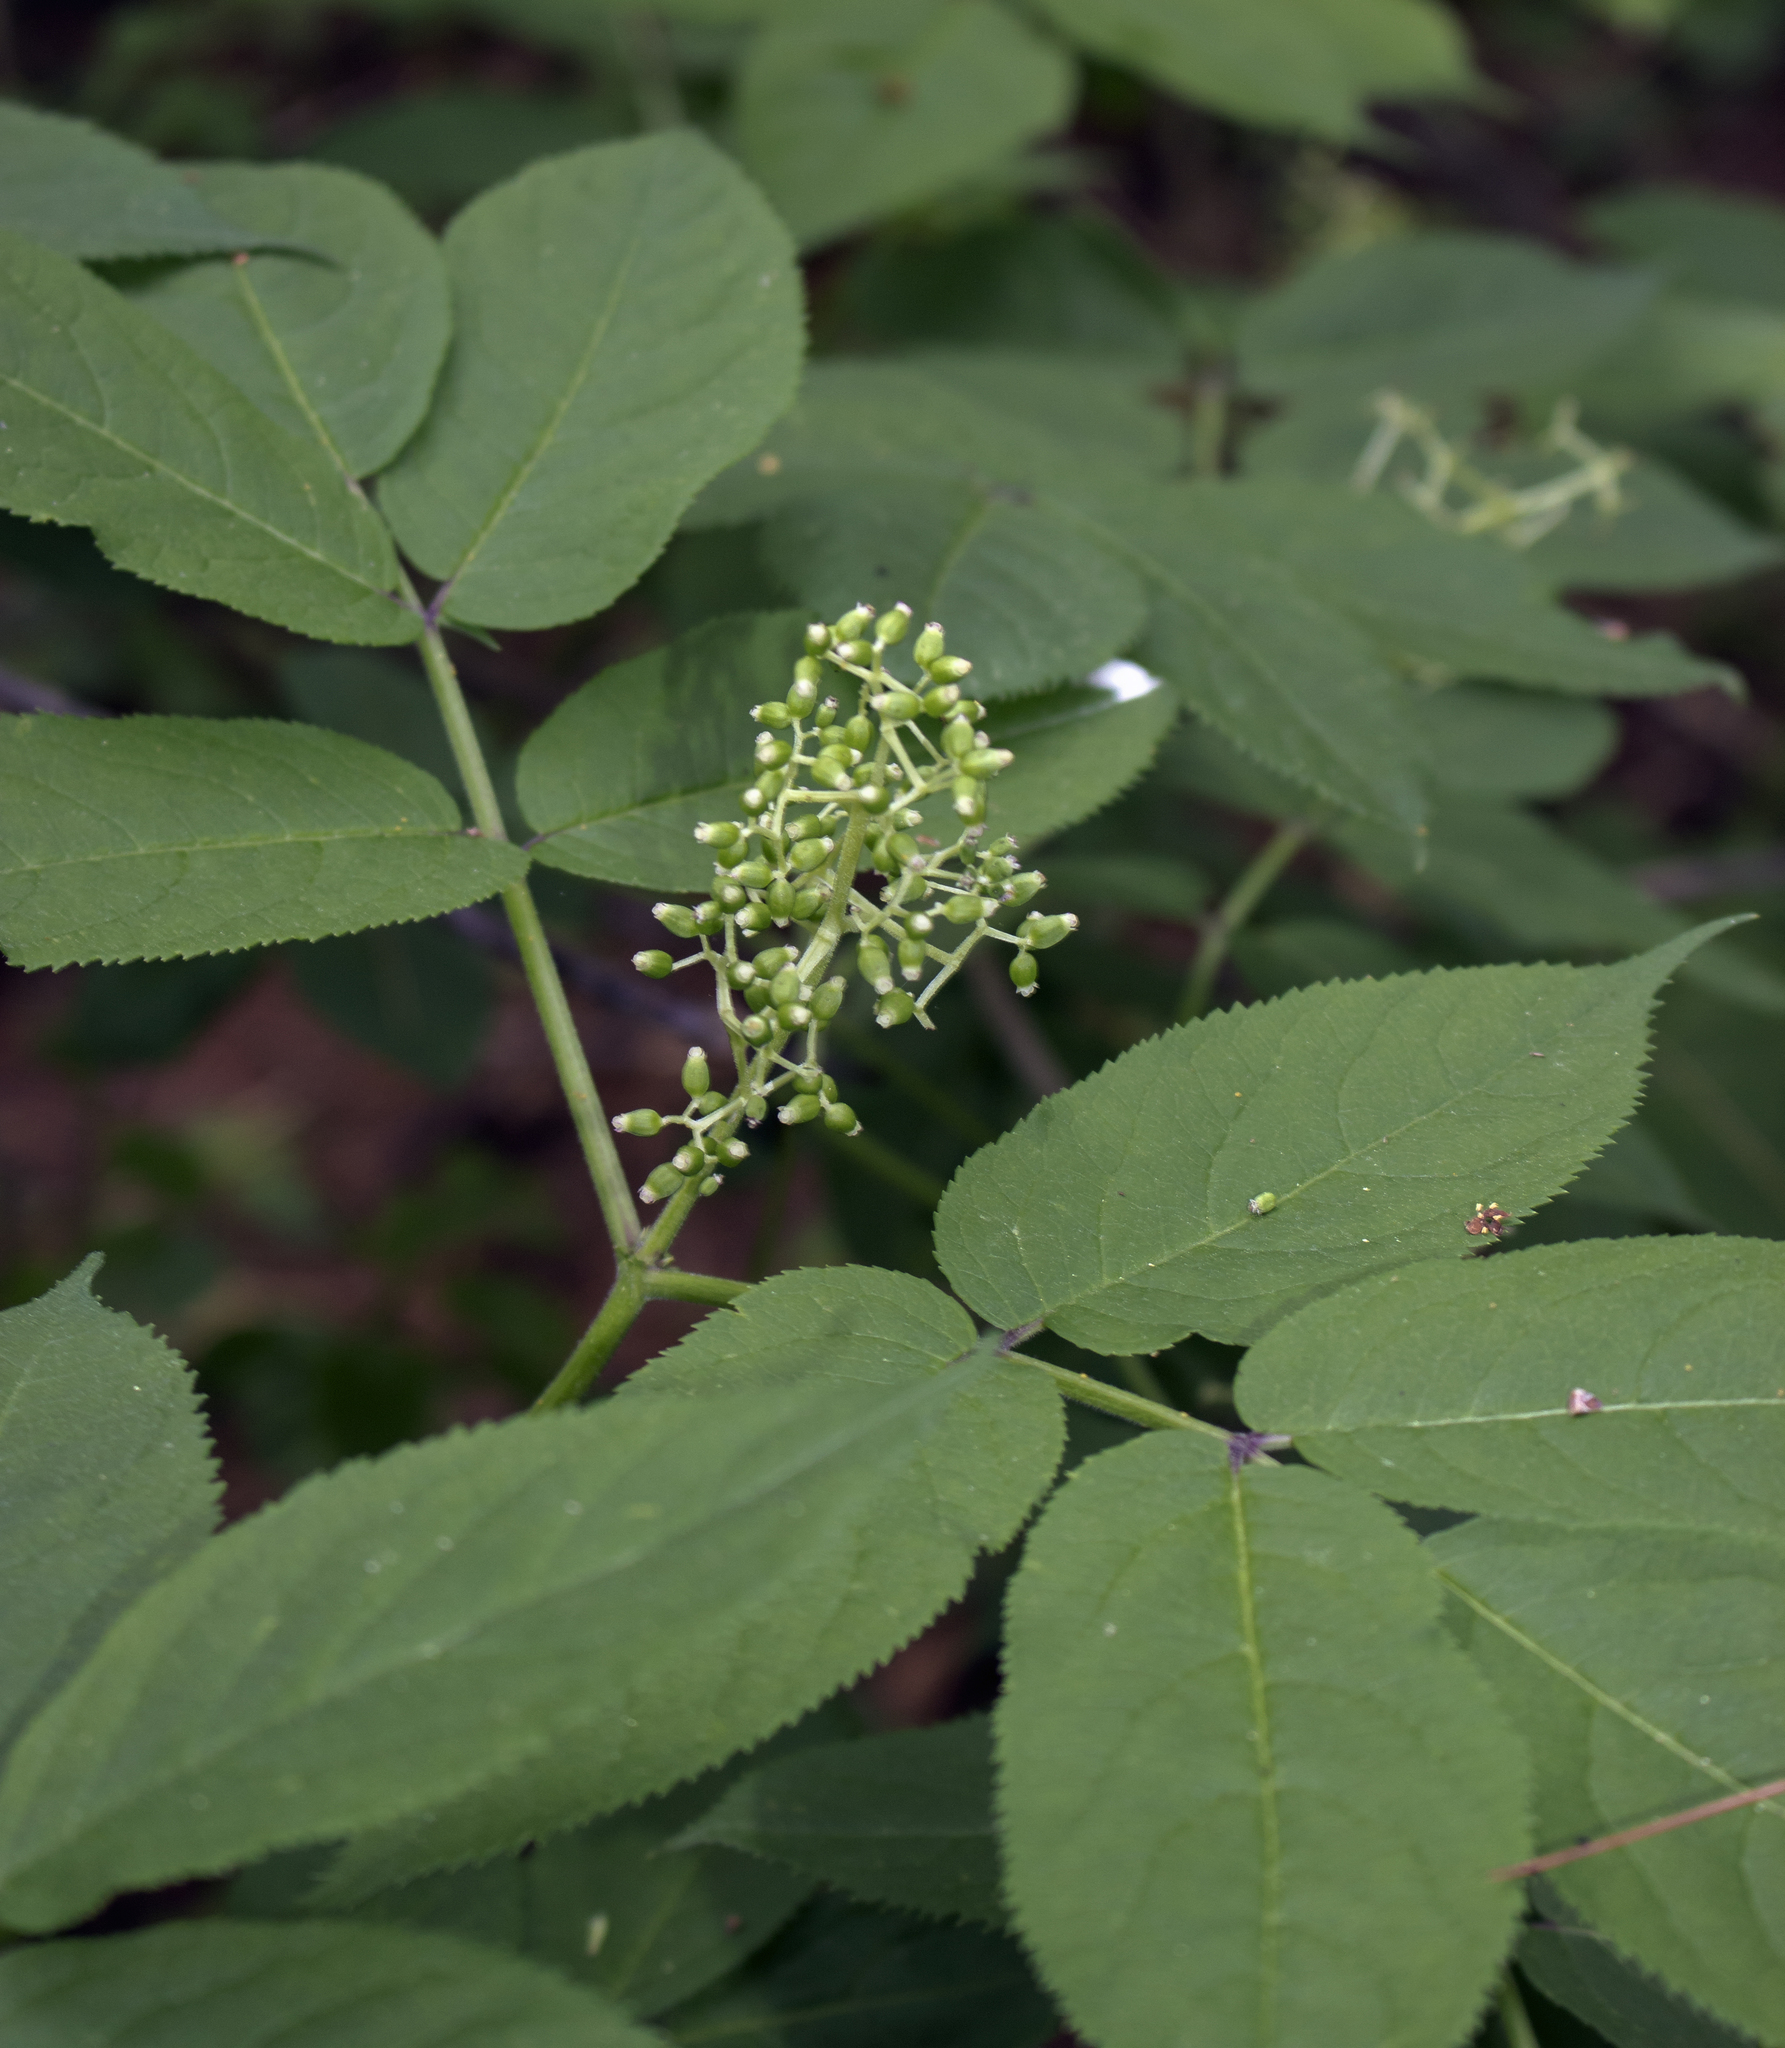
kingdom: Plantae
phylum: Tracheophyta
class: Magnoliopsida
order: Dipsacales
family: Viburnaceae
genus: Sambucus
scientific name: Sambucus racemosa
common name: Red-berried elder
